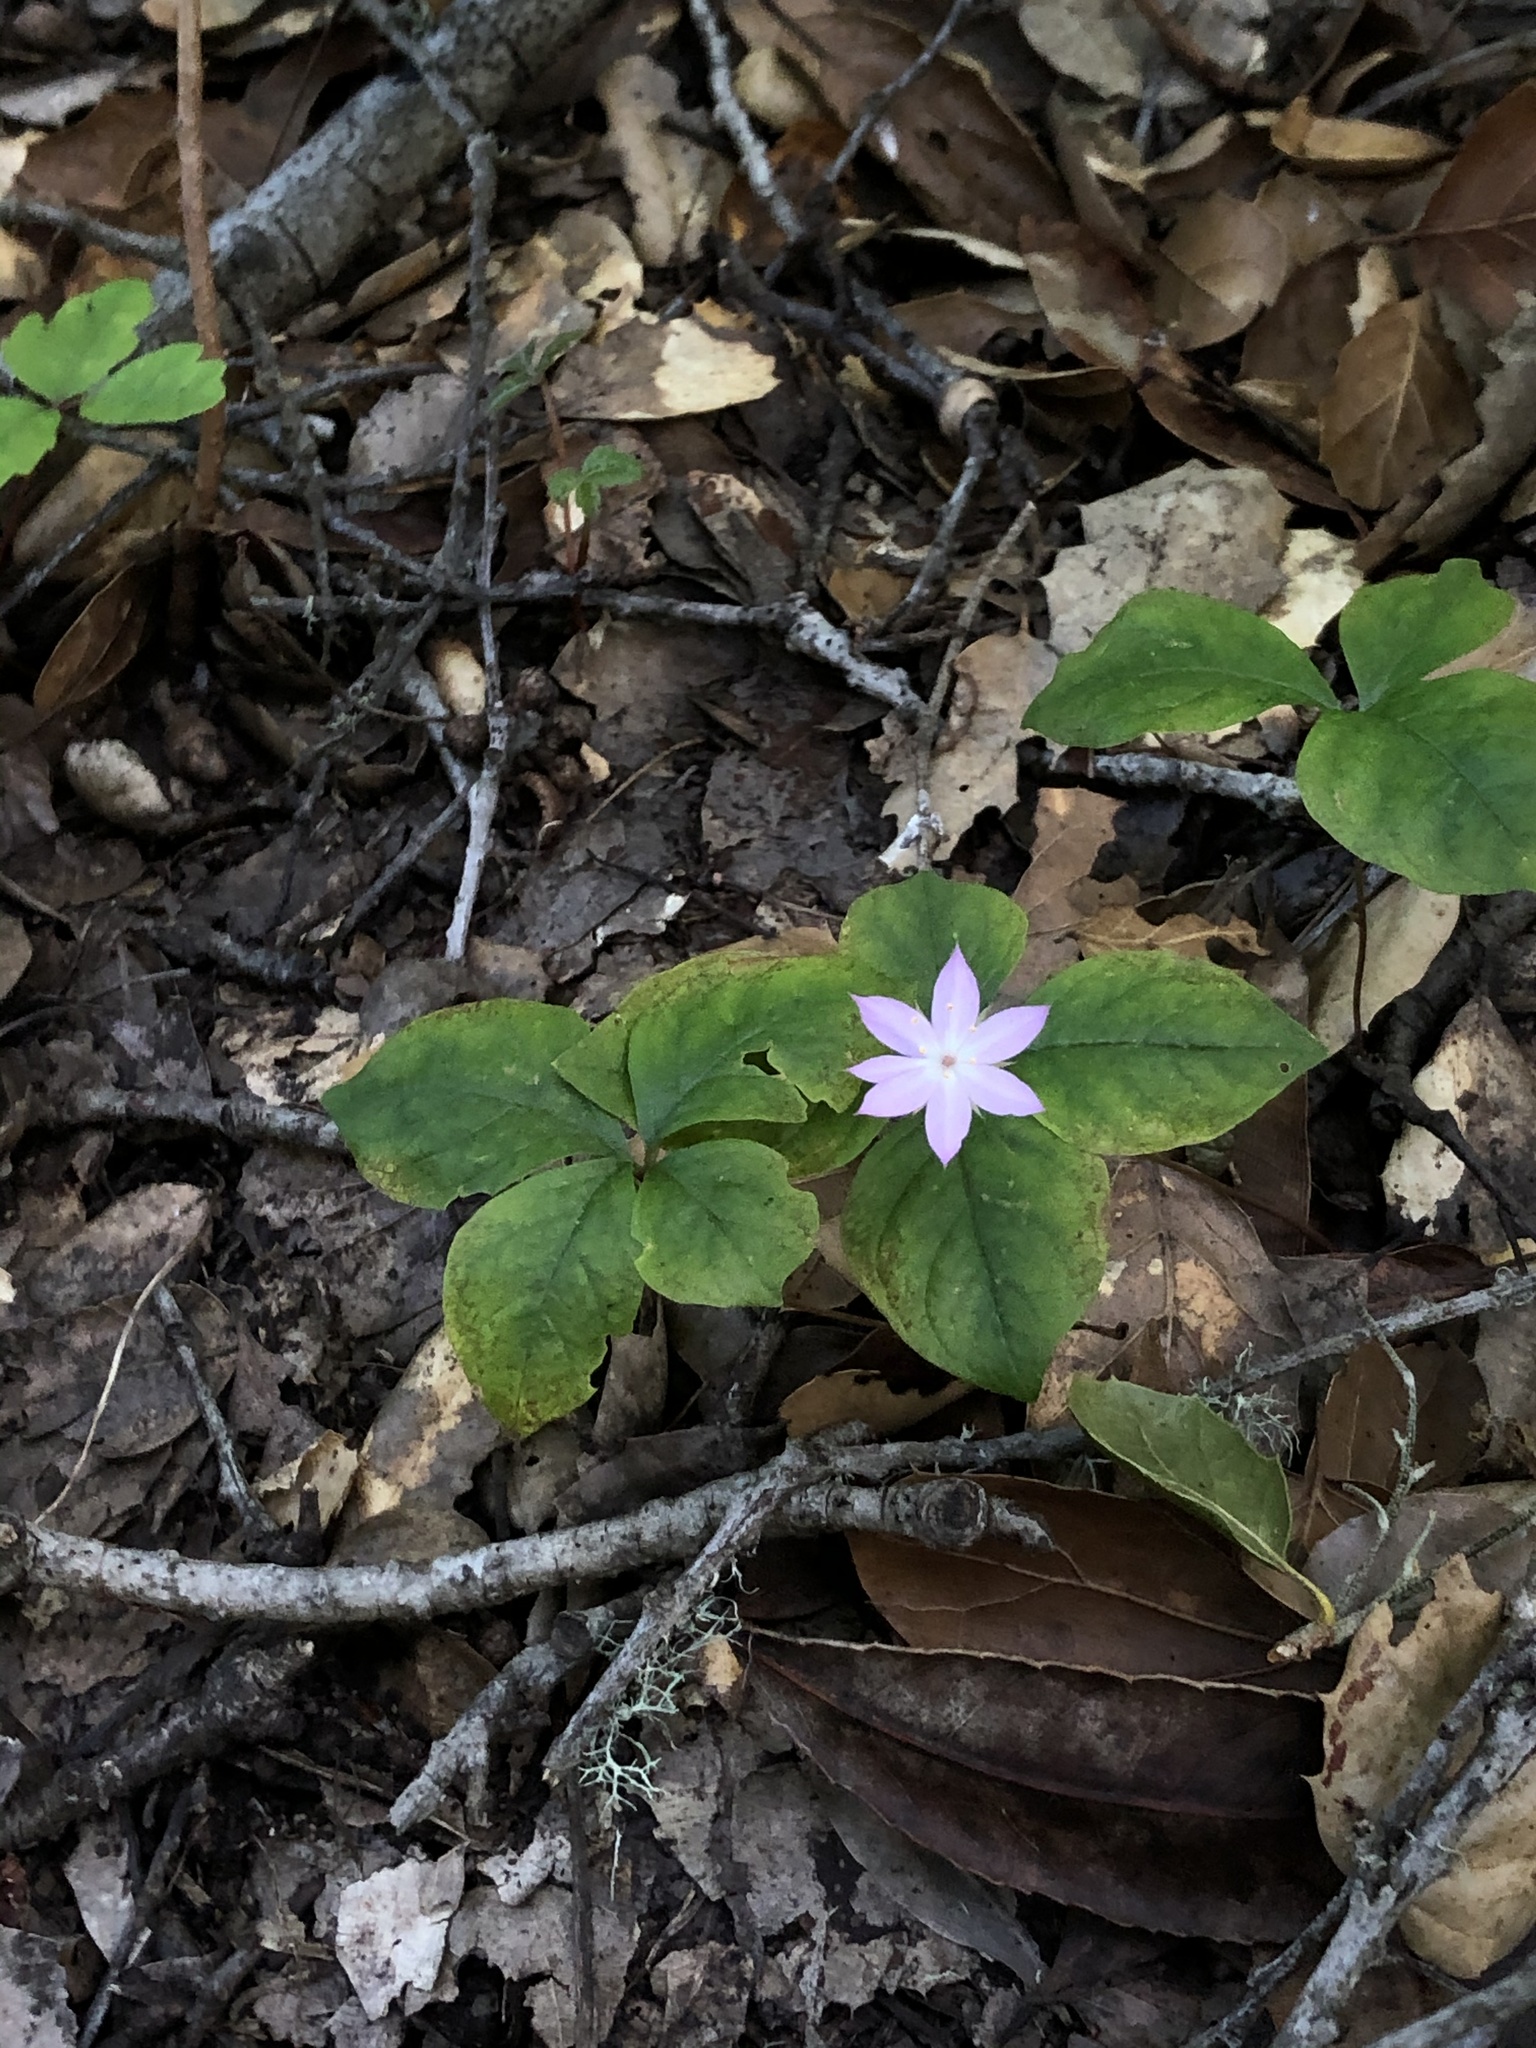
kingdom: Plantae
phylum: Tracheophyta
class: Magnoliopsida
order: Ericales
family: Primulaceae
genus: Lysimachia
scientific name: Lysimachia latifolia
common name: Pacific starflower
